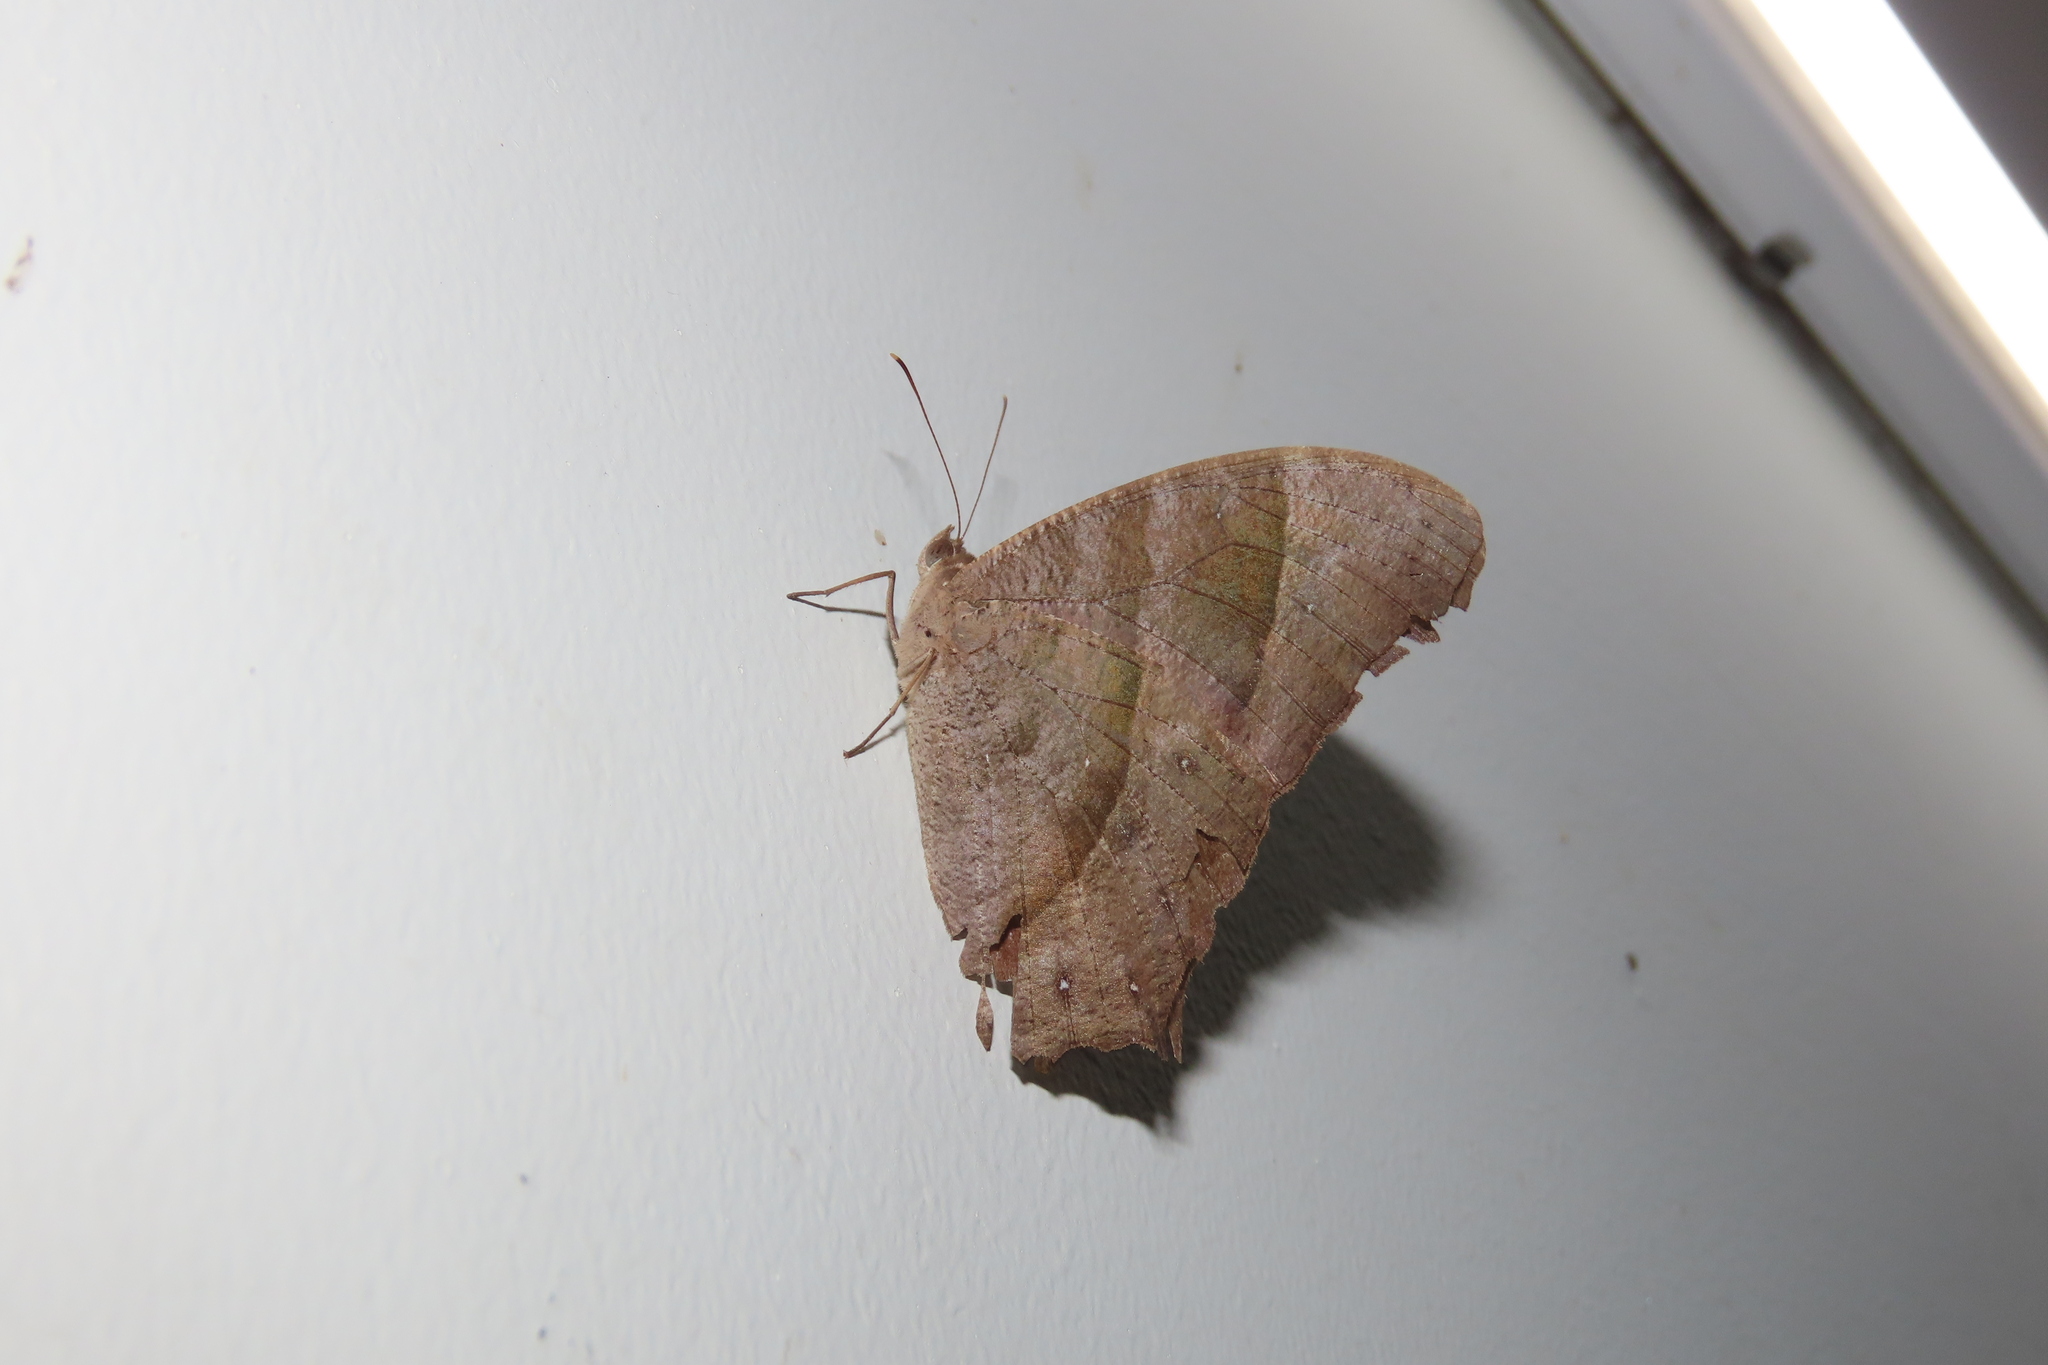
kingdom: Animalia
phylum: Arthropoda
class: Insecta
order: Lepidoptera
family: Nymphalidae
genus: Melanitis
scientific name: Melanitis leda
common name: Twilight brown
